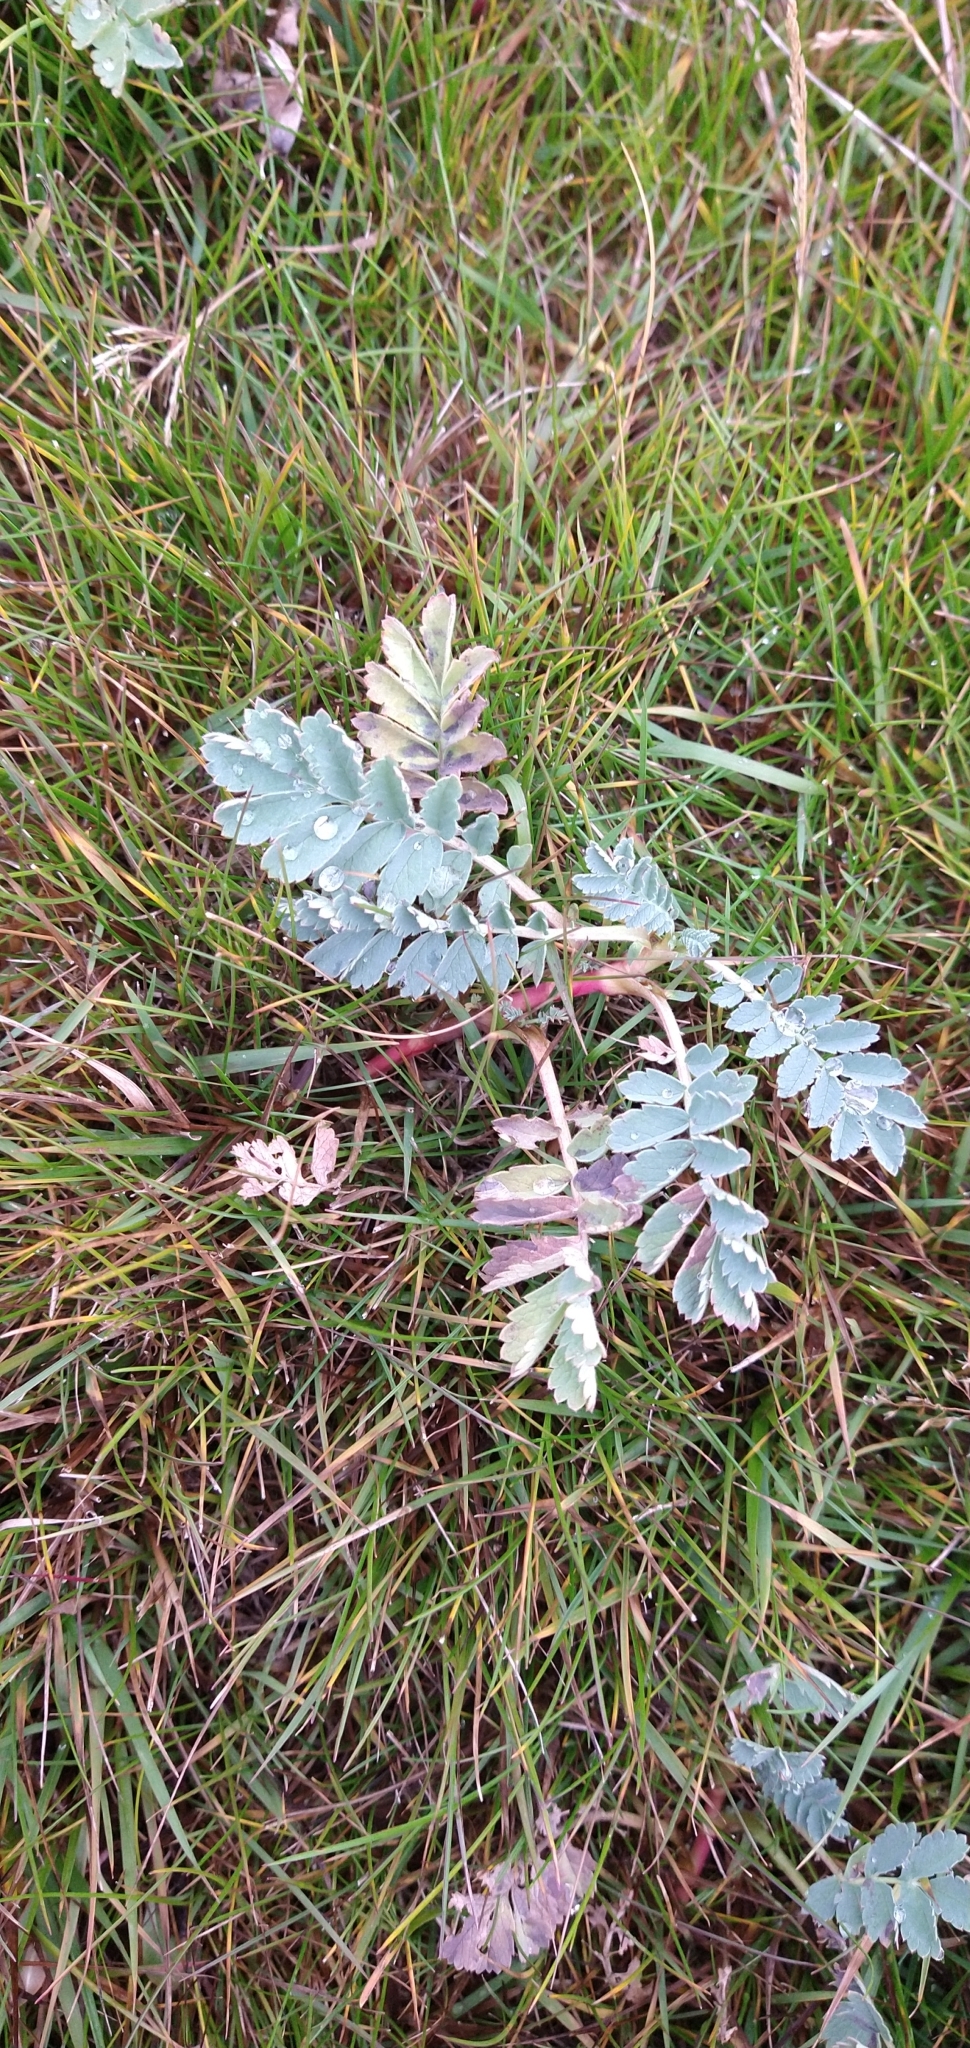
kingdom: Plantae
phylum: Tracheophyta
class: Magnoliopsida
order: Rosales
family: Rosaceae
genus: Acaena
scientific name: Acaena magellanica
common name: New zealand burr
